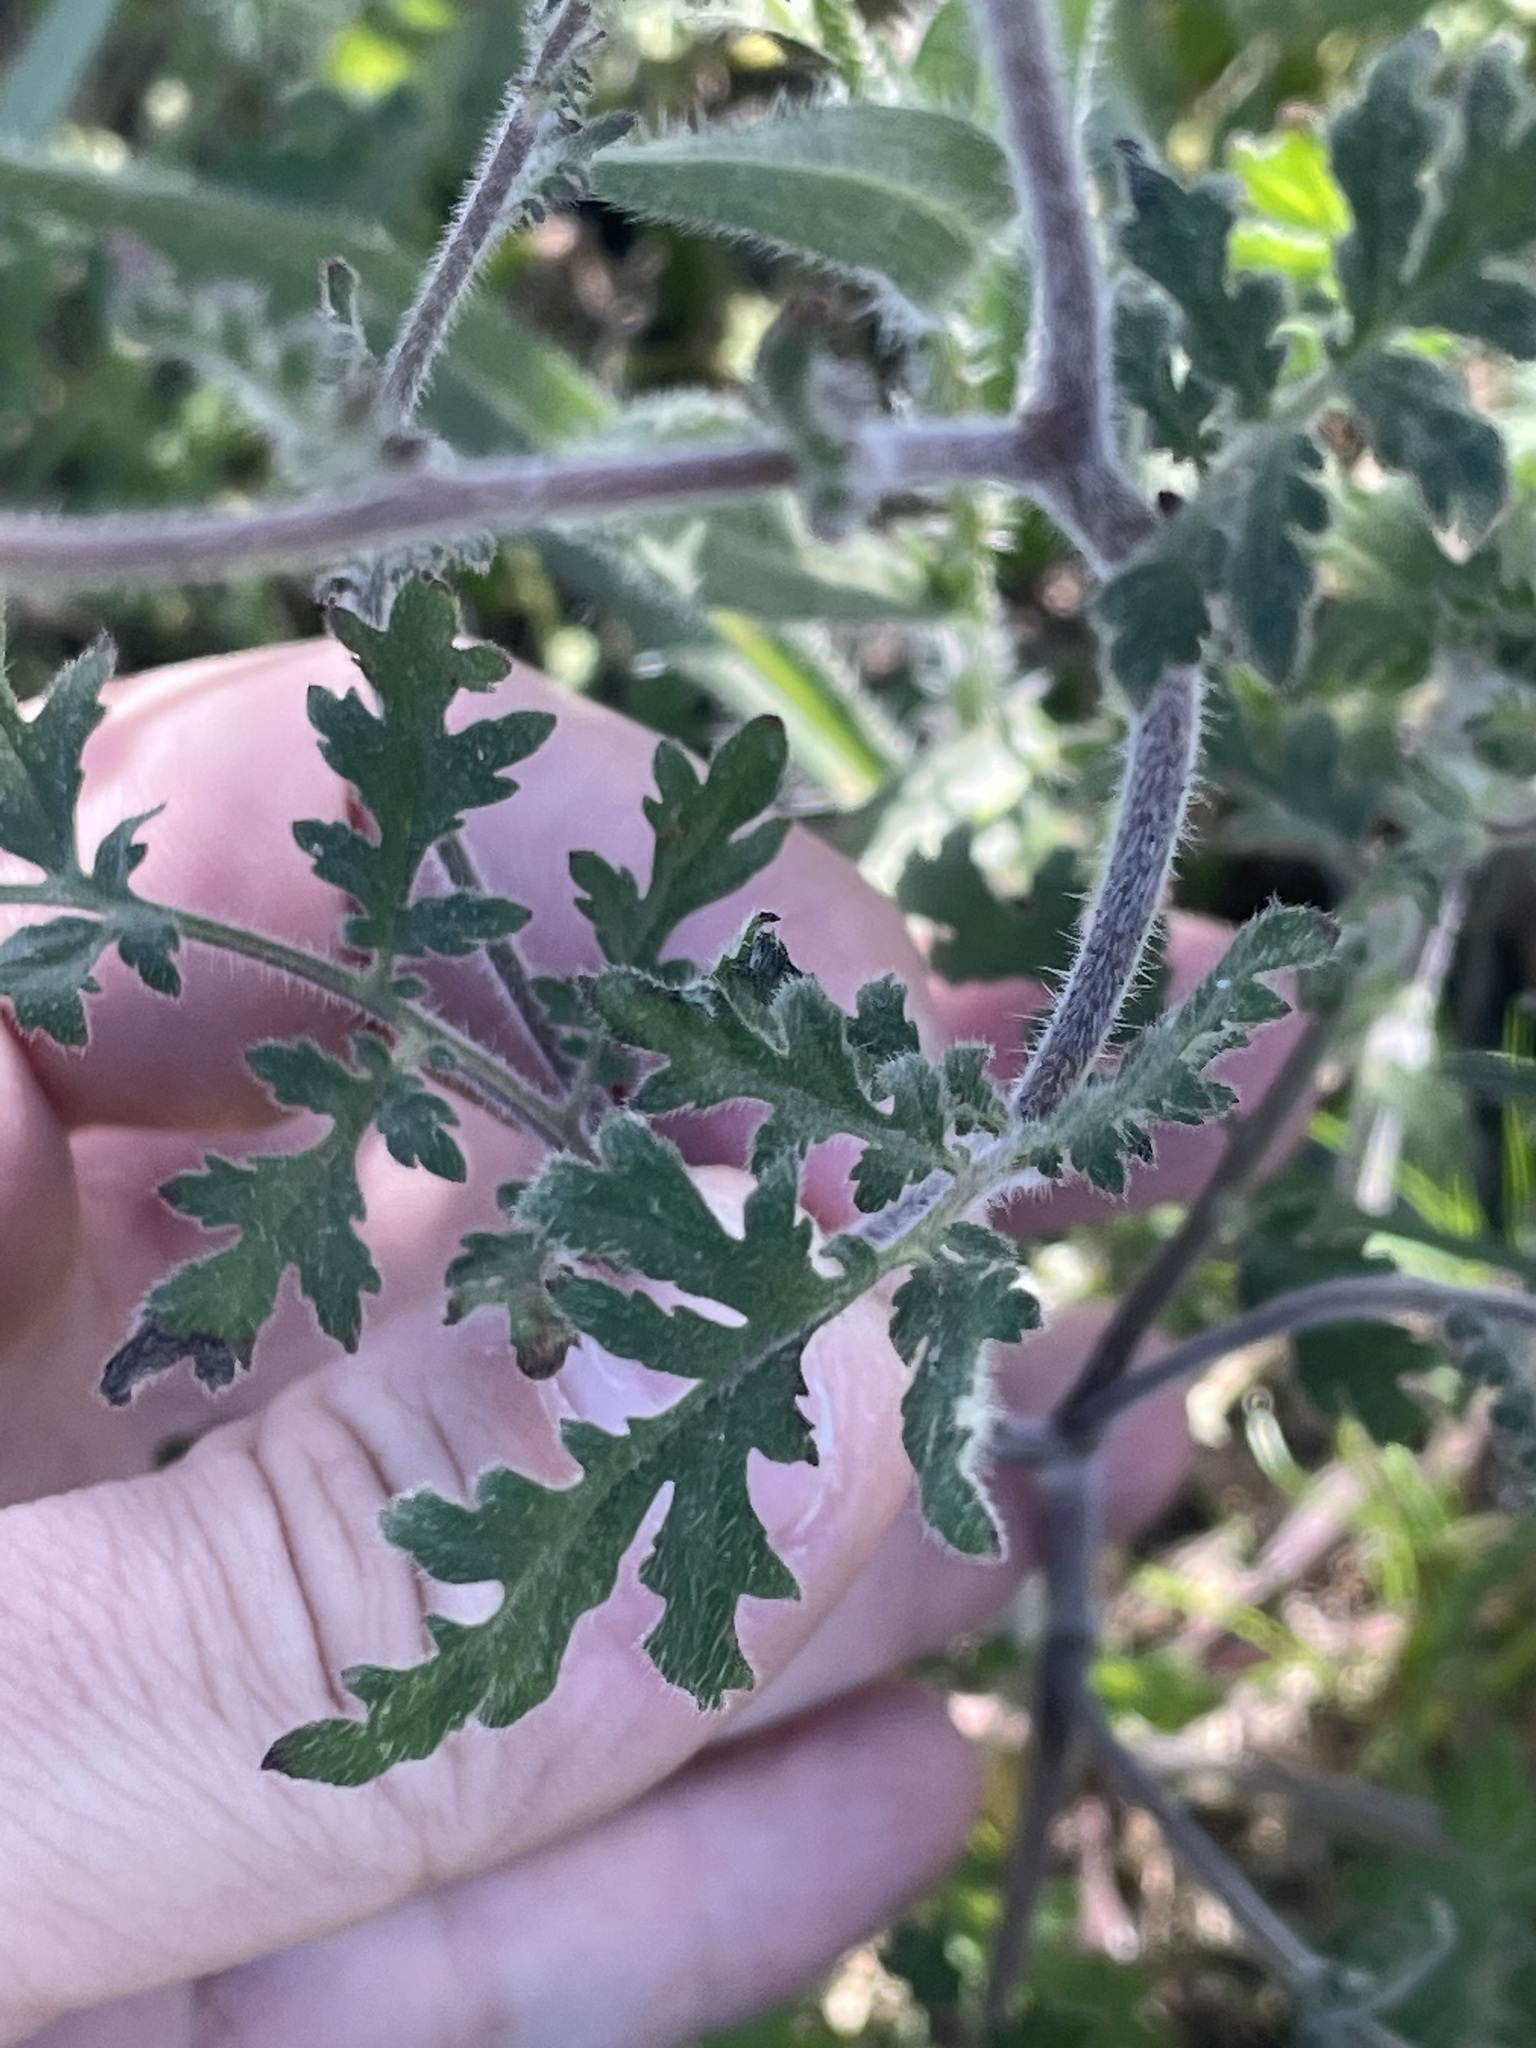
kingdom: Plantae
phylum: Tracheophyta
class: Magnoliopsida
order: Boraginales
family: Hydrophyllaceae
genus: Phacelia
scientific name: Phacelia distans
